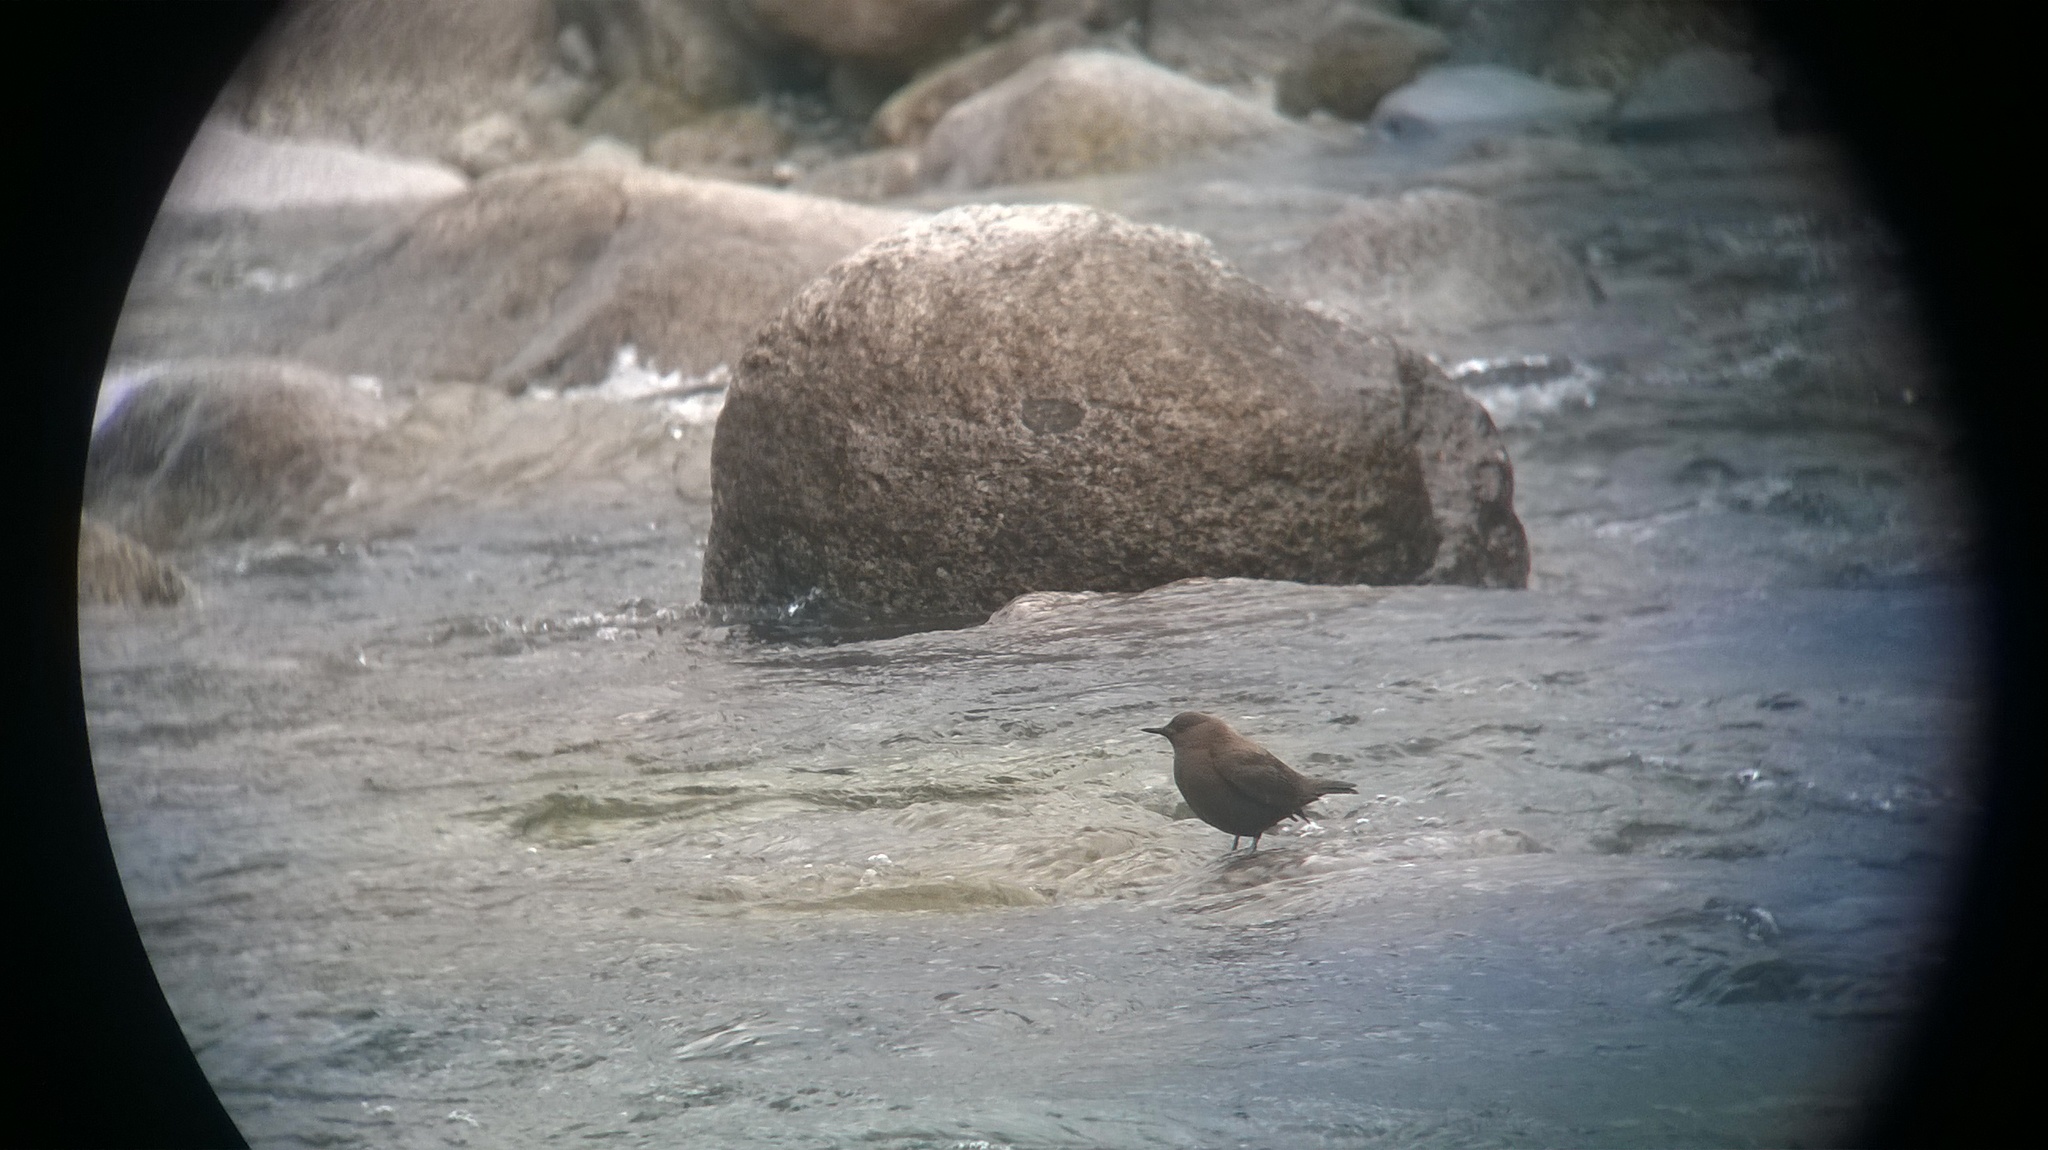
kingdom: Animalia
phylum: Chordata
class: Aves
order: Passeriformes
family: Cinclidae
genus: Cinclus
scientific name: Cinclus pallasii
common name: Brown dipper
